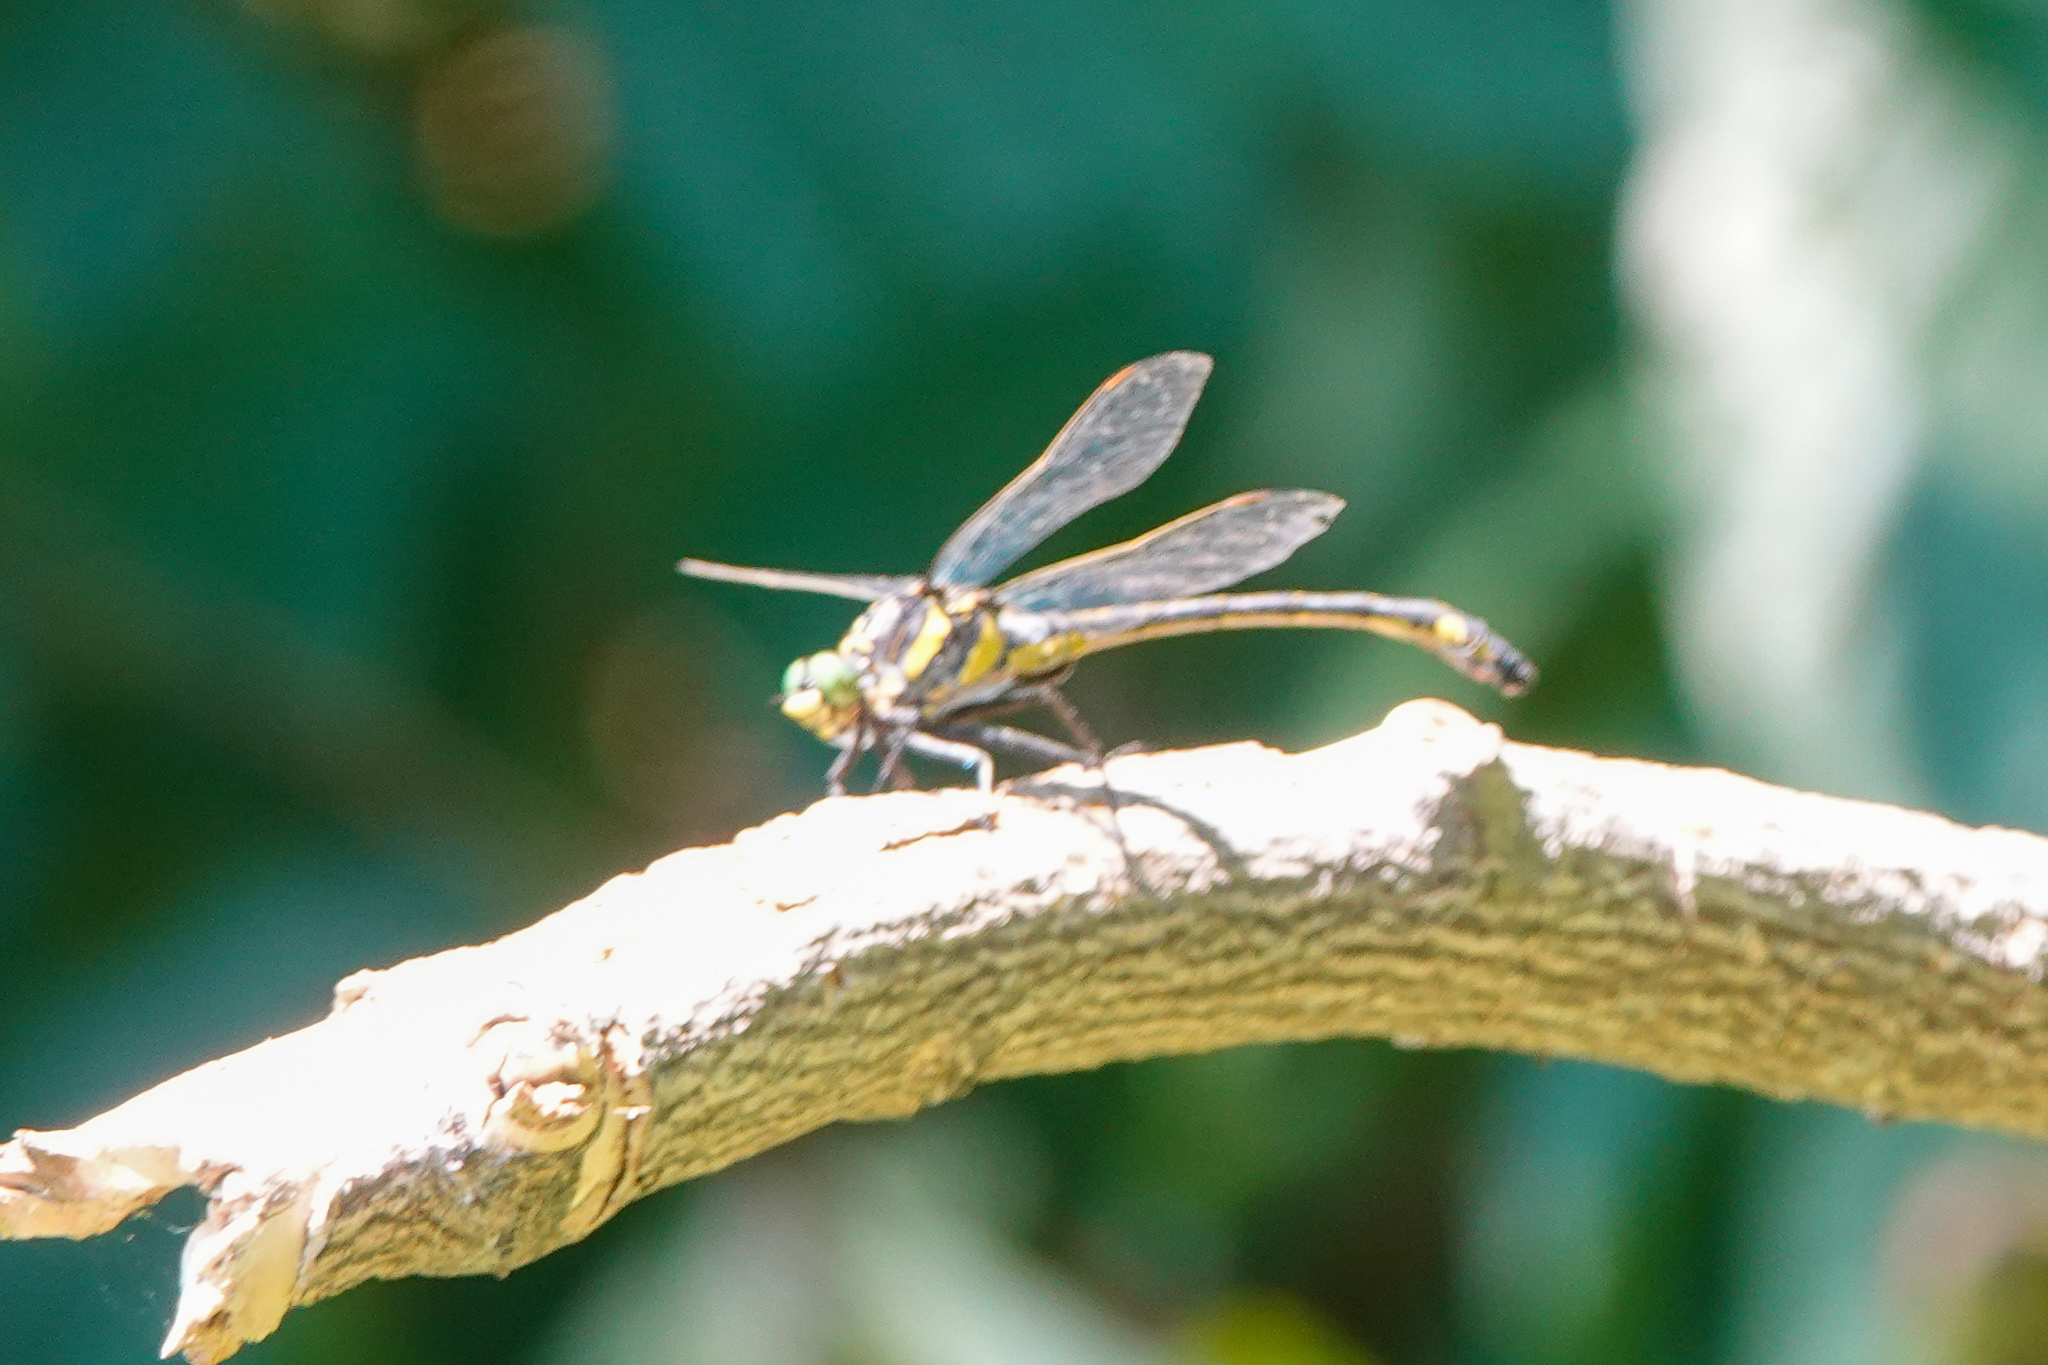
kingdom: Animalia
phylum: Arthropoda
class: Insecta
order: Odonata
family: Gomphidae
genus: Hagenius
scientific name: Hagenius brevistylus
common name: Dragonhunter
